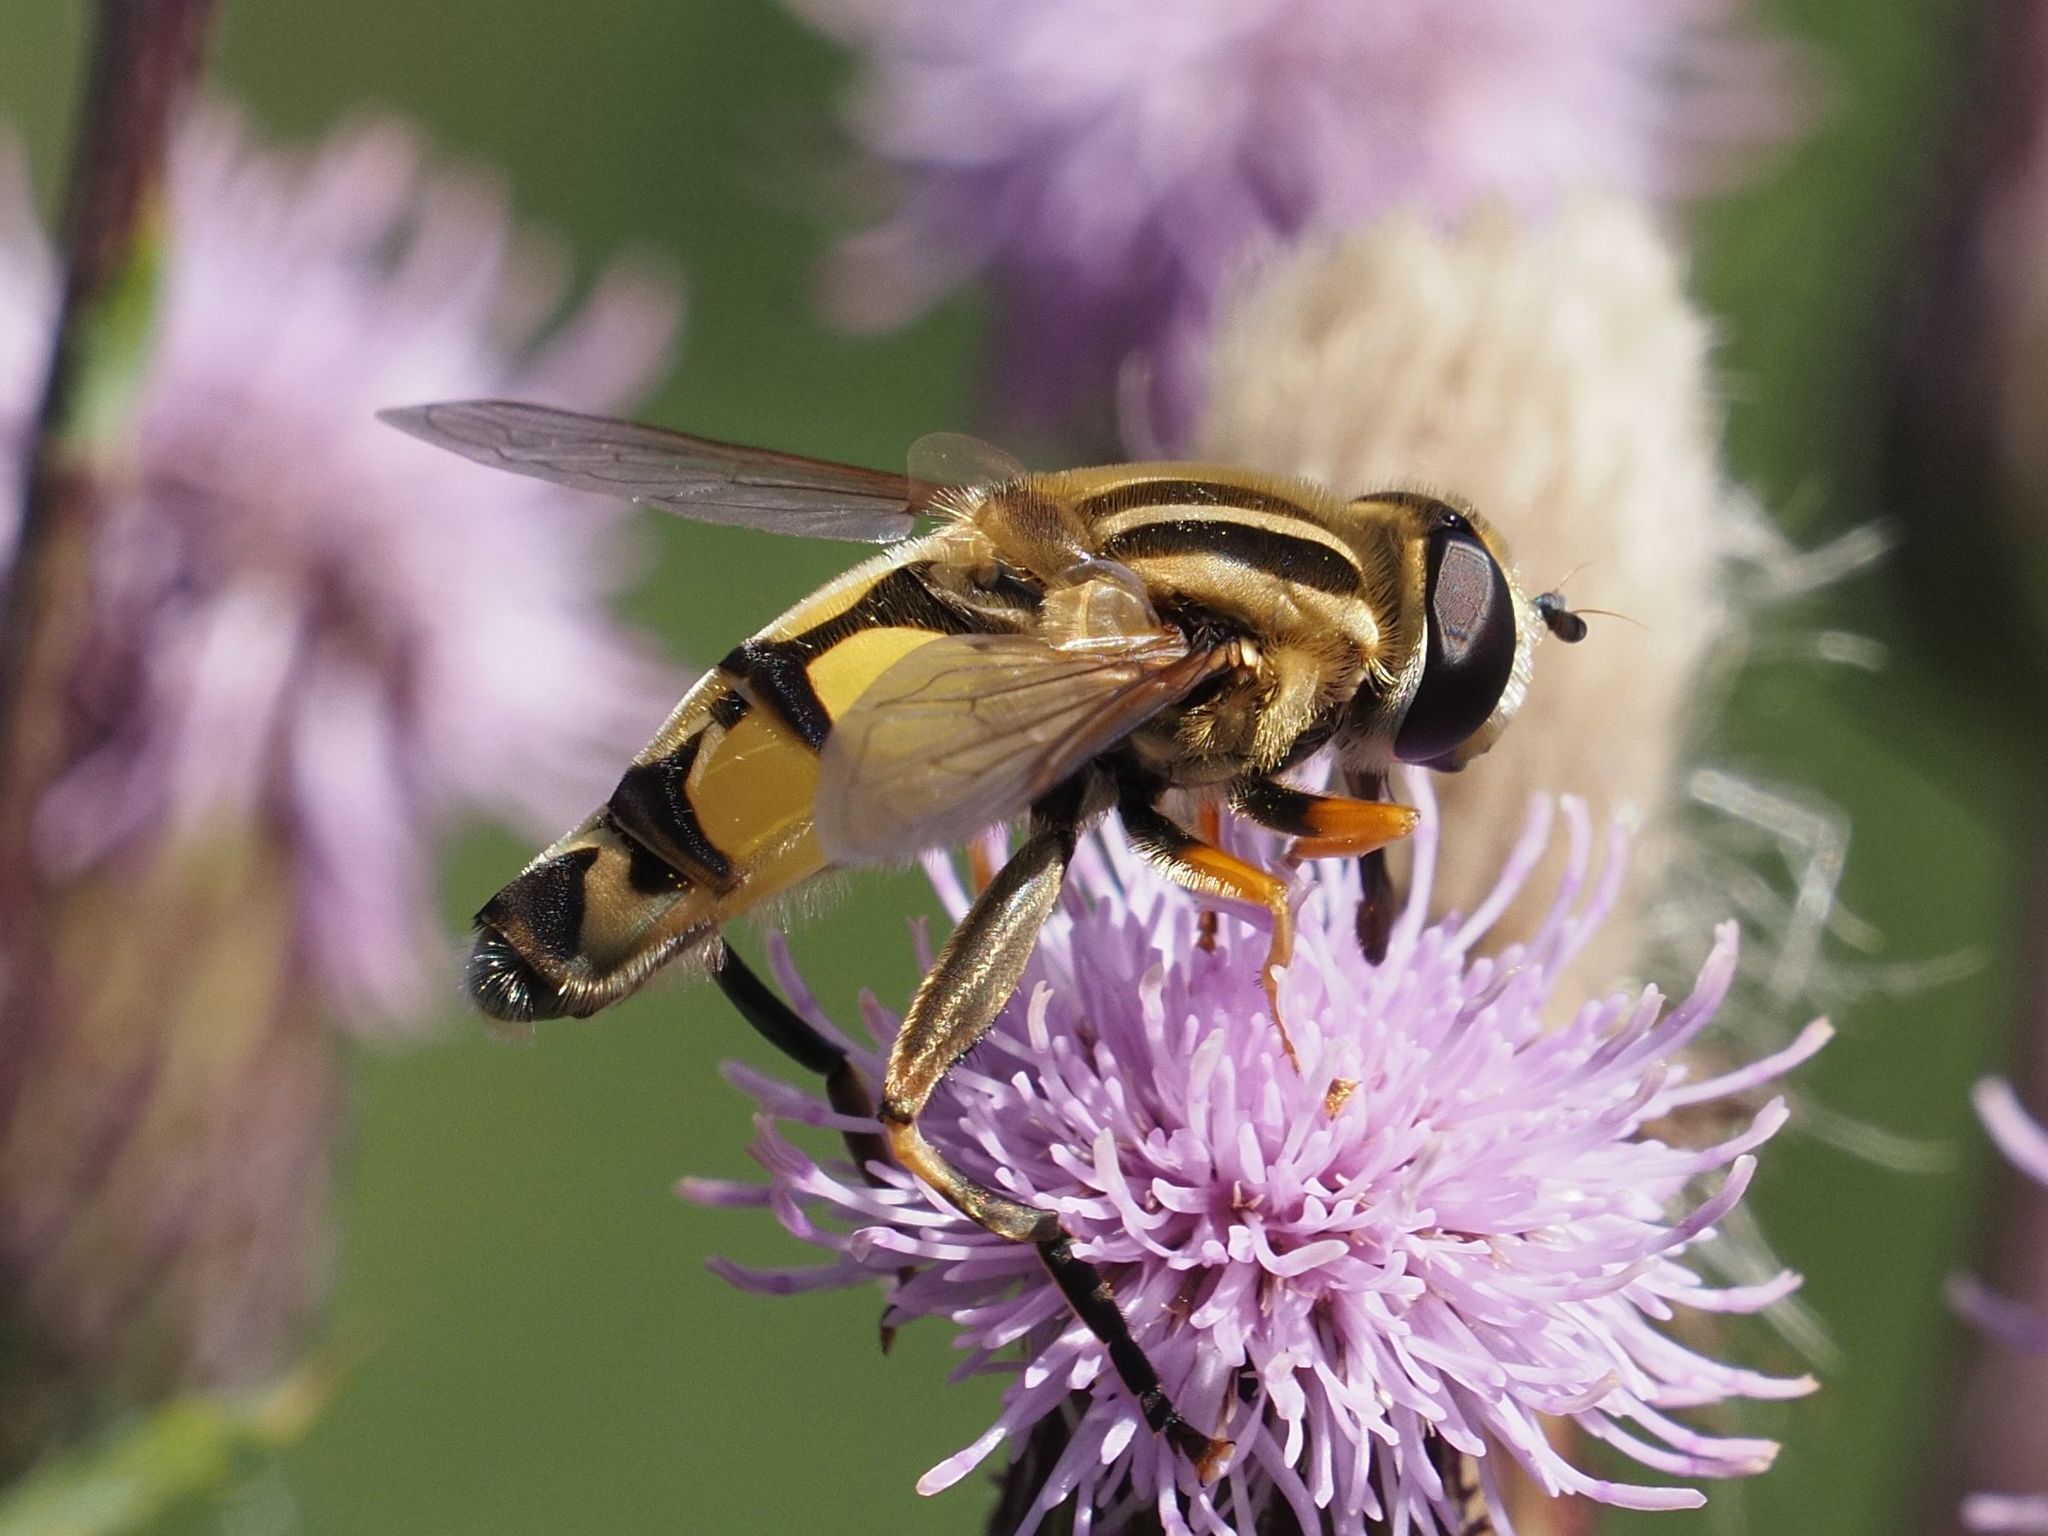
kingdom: Animalia
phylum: Arthropoda
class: Insecta
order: Diptera
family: Syrphidae
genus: Helophilus
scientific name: Helophilus trivittatus
